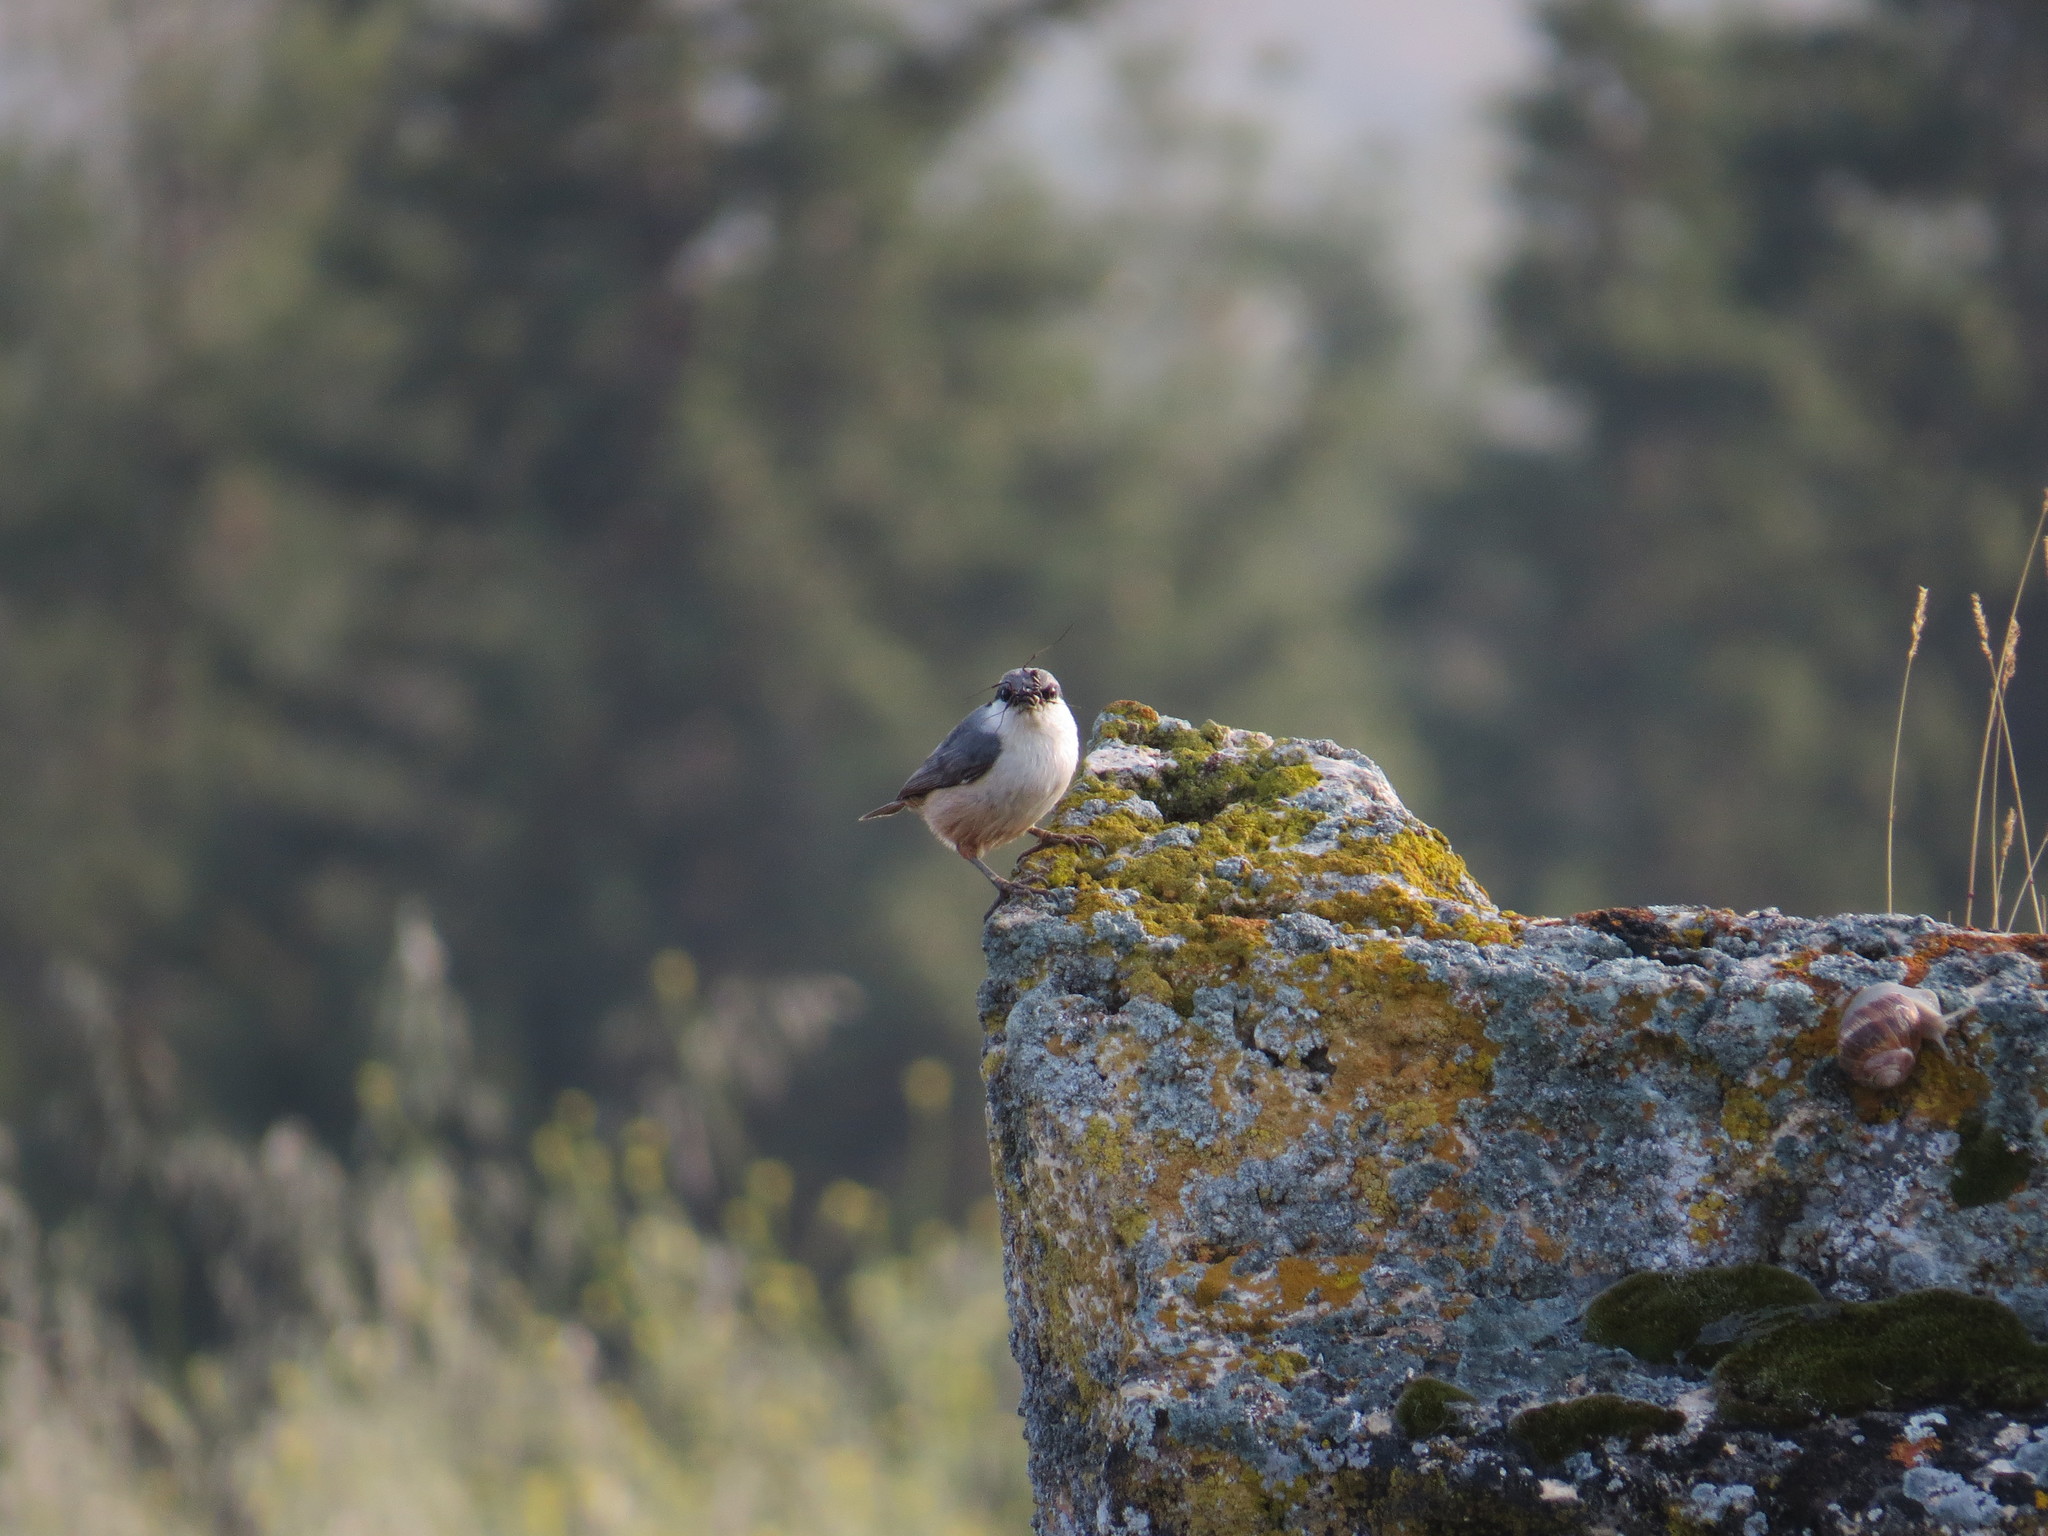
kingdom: Animalia
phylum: Chordata
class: Aves
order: Passeriformes
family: Sittidae
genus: Sitta
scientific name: Sitta neumayer
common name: Western rock nuthatch
